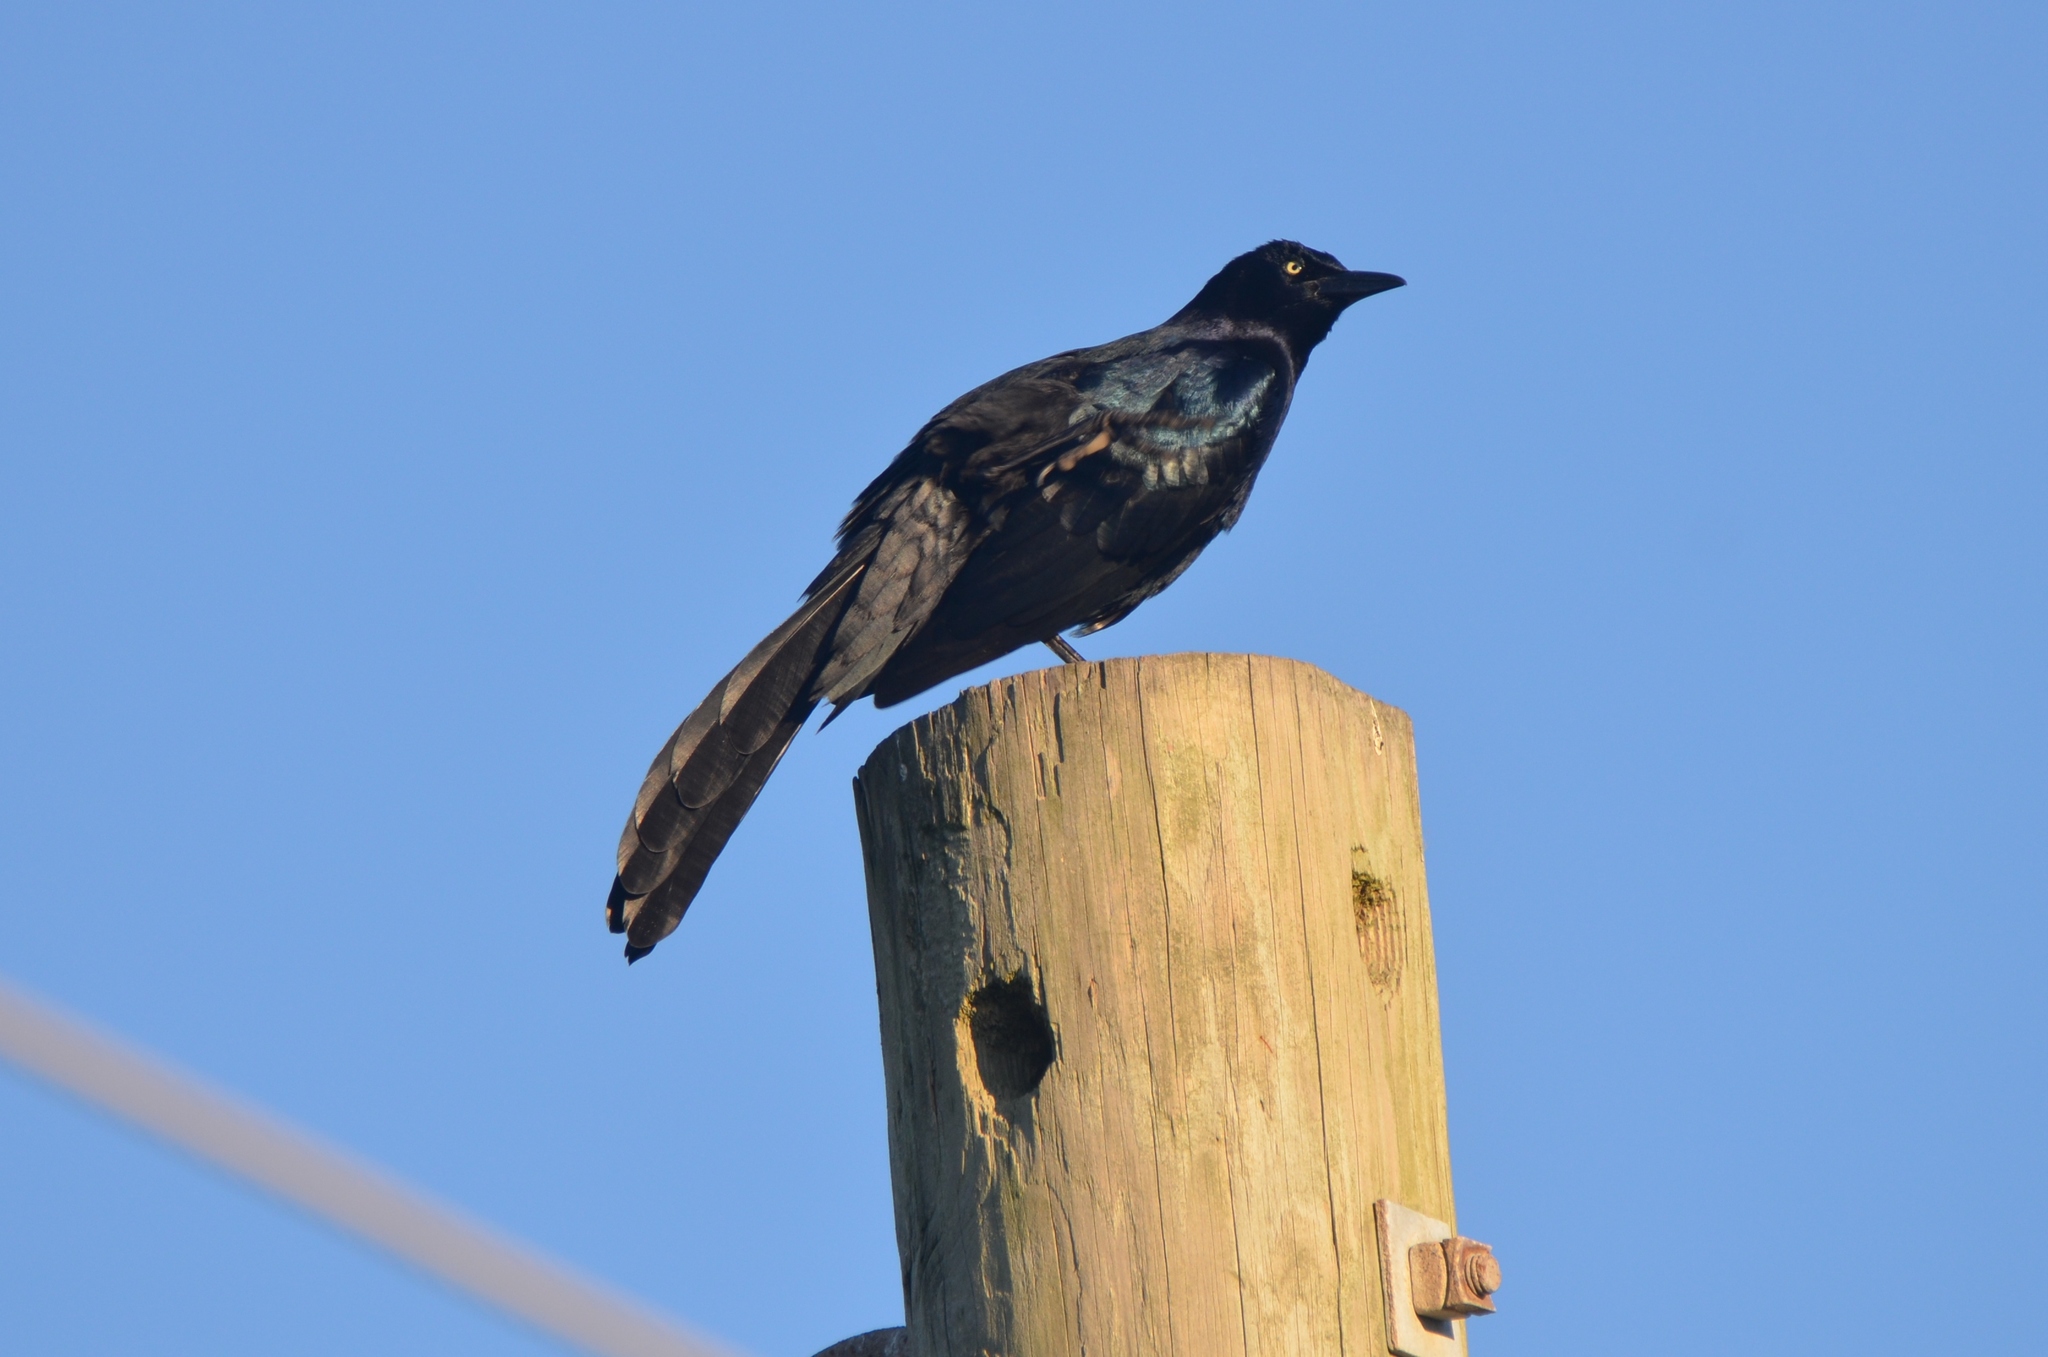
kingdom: Animalia
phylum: Chordata
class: Aves
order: Passeriformes
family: Icteridae
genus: Quiscalus
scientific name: Quiscalus mexicanus
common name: Great-tailed grackle
